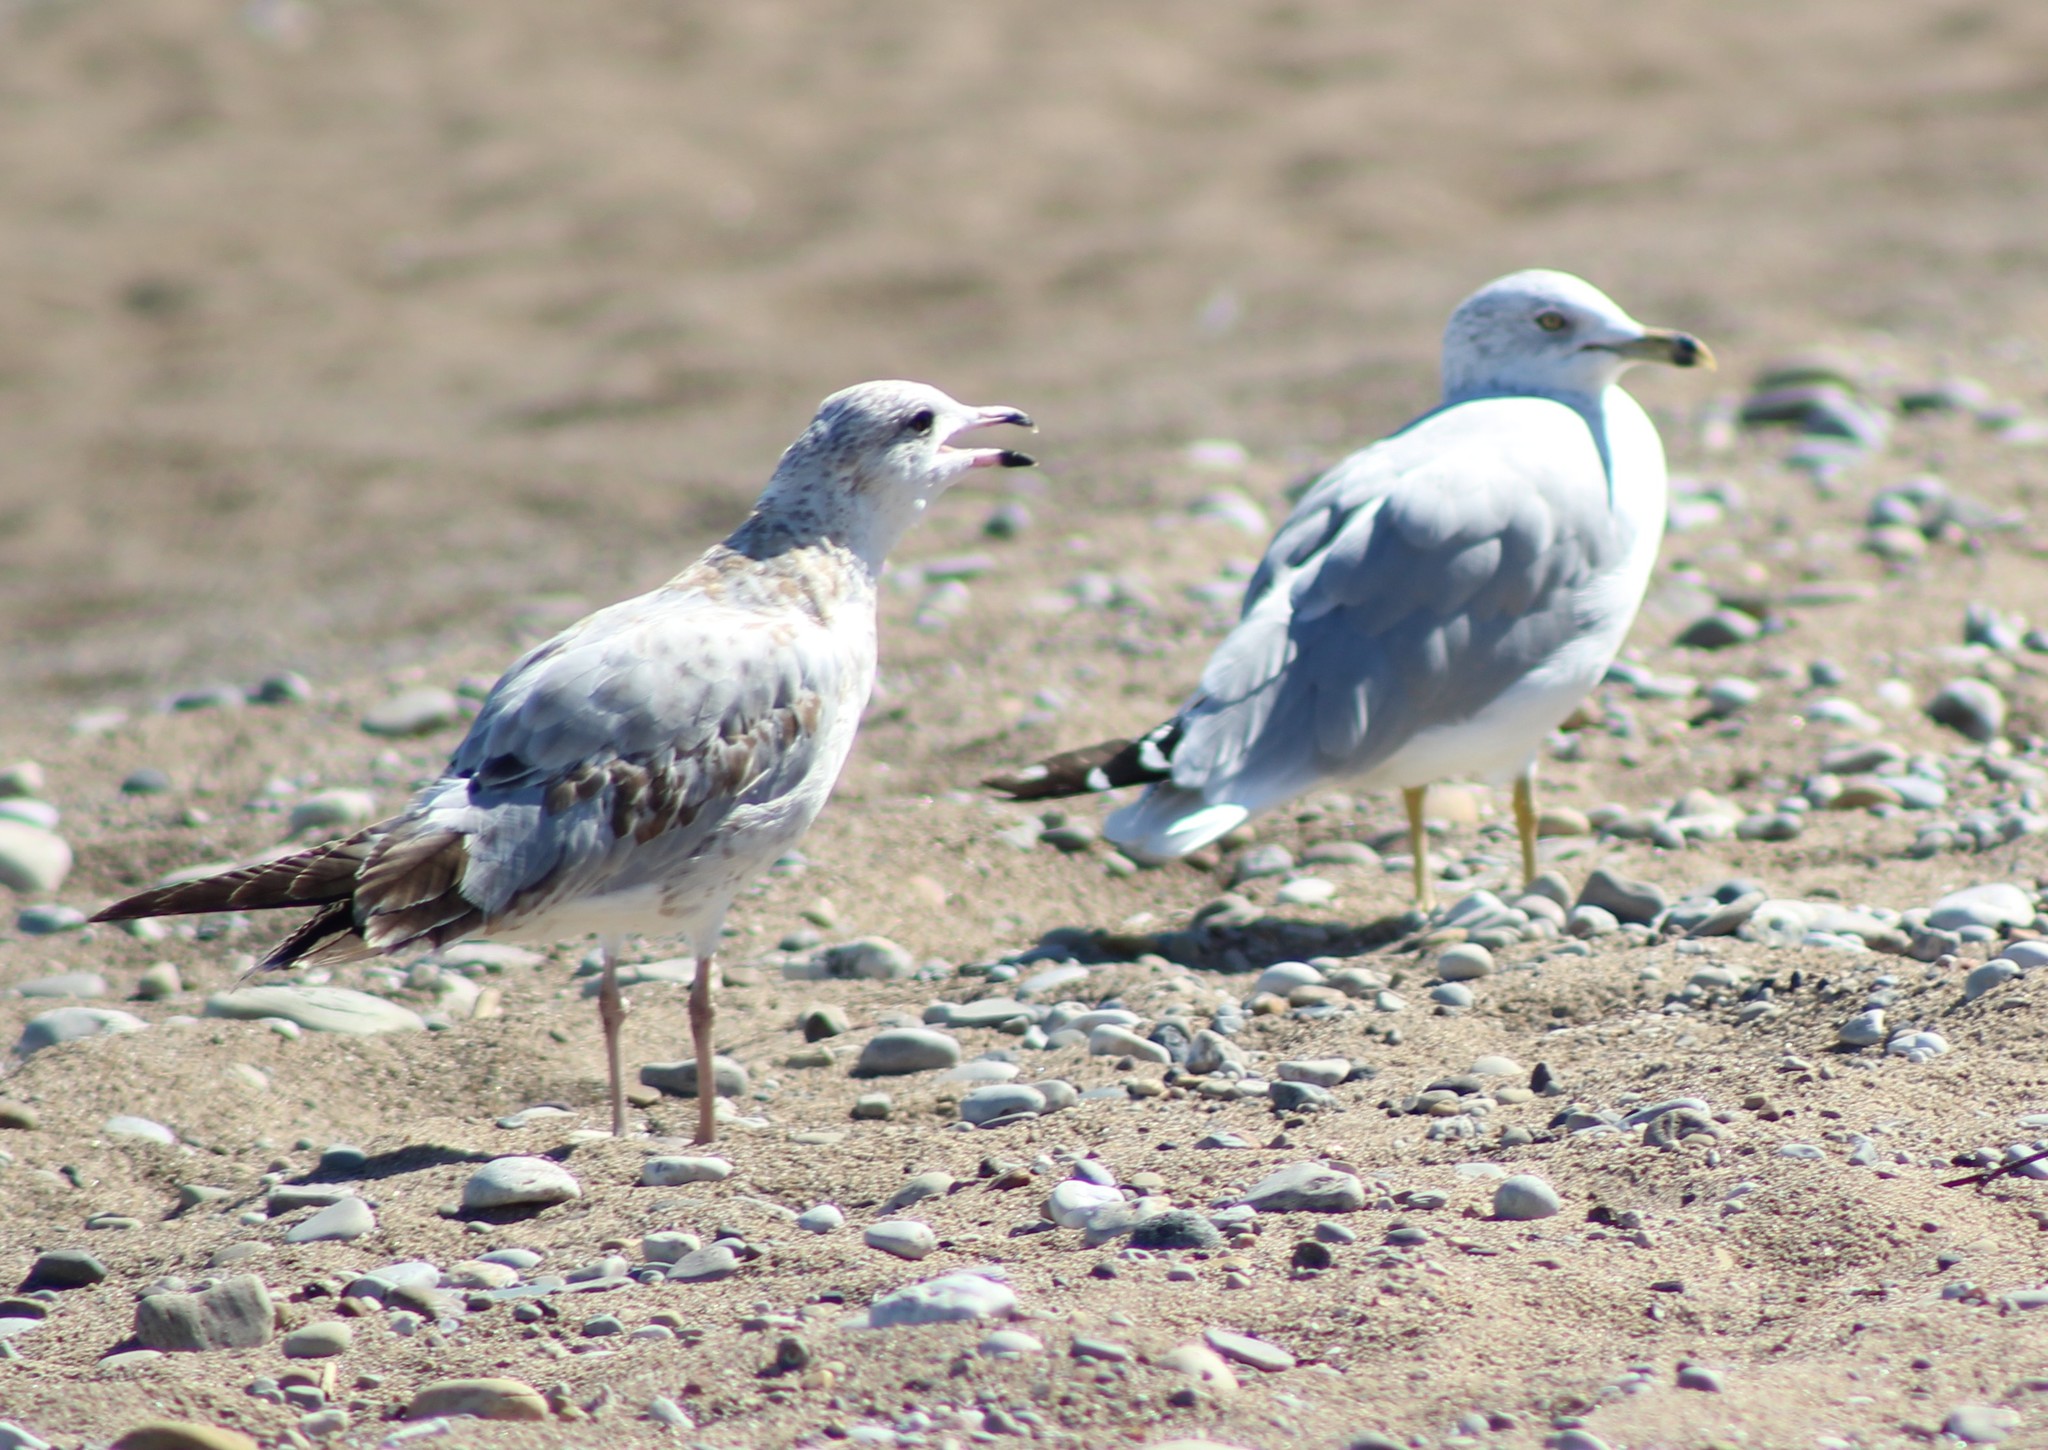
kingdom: Animalia
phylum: Chordata
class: Aves
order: Charadriiformes
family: Laridae
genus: Larus
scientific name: Larus delawarensis
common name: Ring-billed gull
